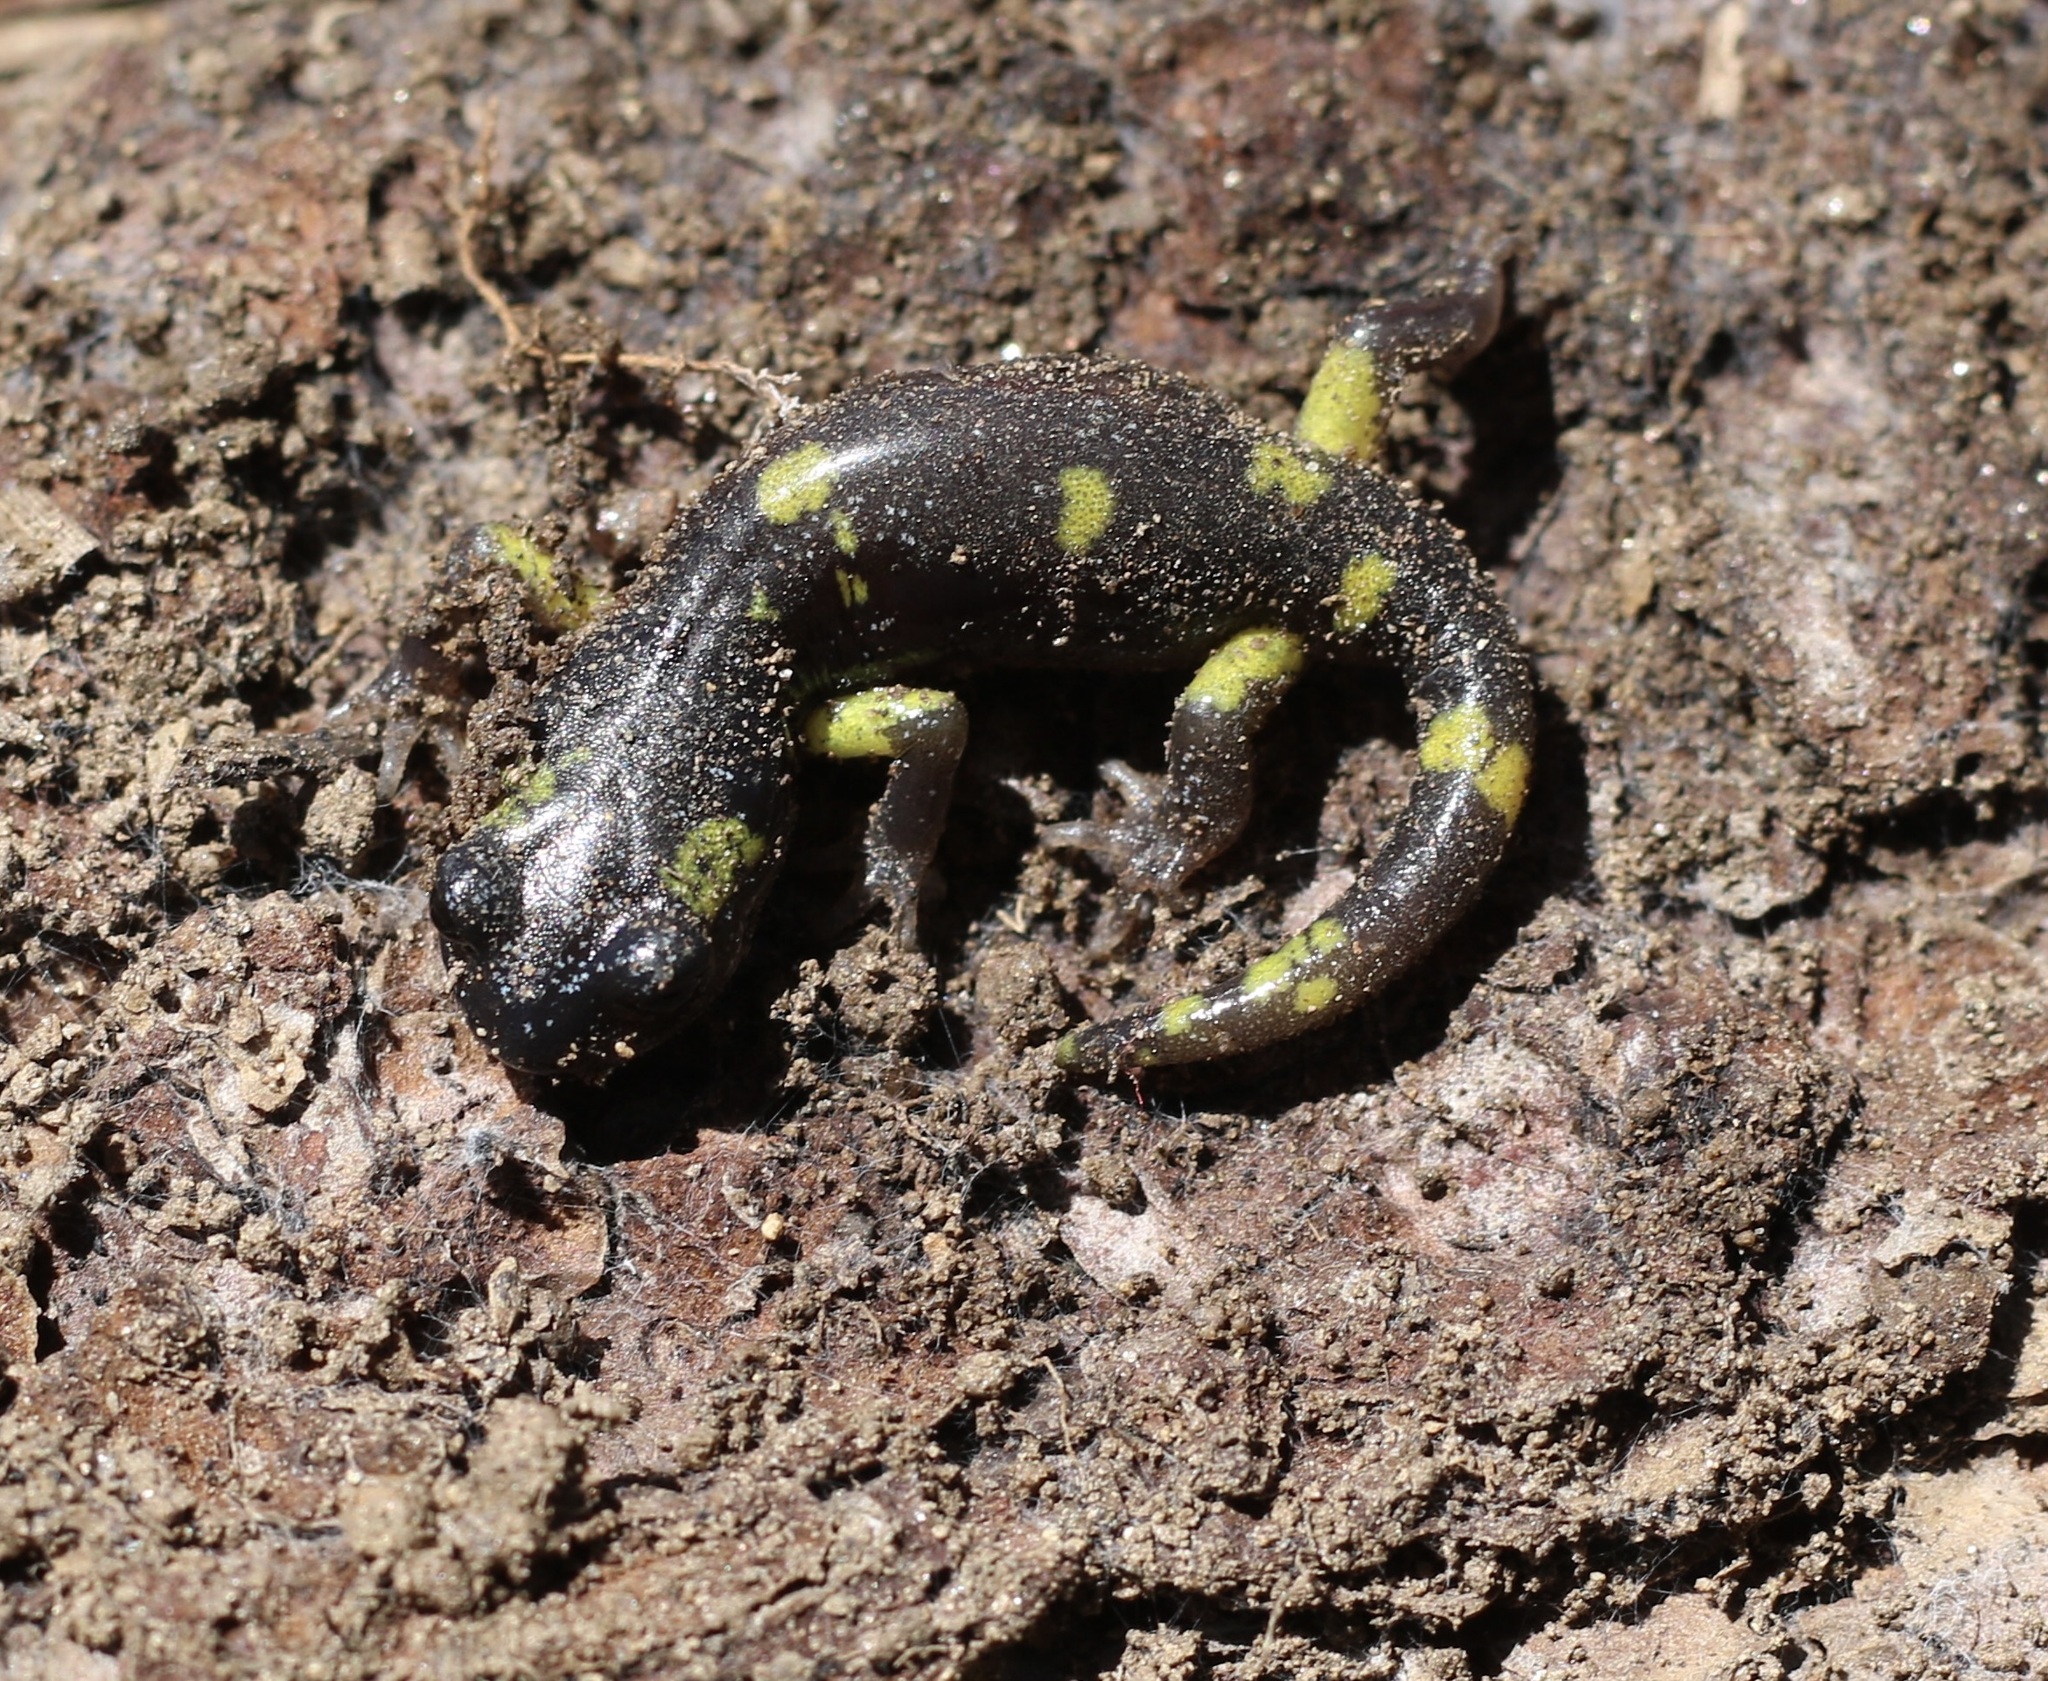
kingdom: Animalia
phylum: Chordata
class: Amphibia
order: Caudata
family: Plethodontidae
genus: Ensatina
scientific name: Ensatina eschscholtzii
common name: Ensatina
